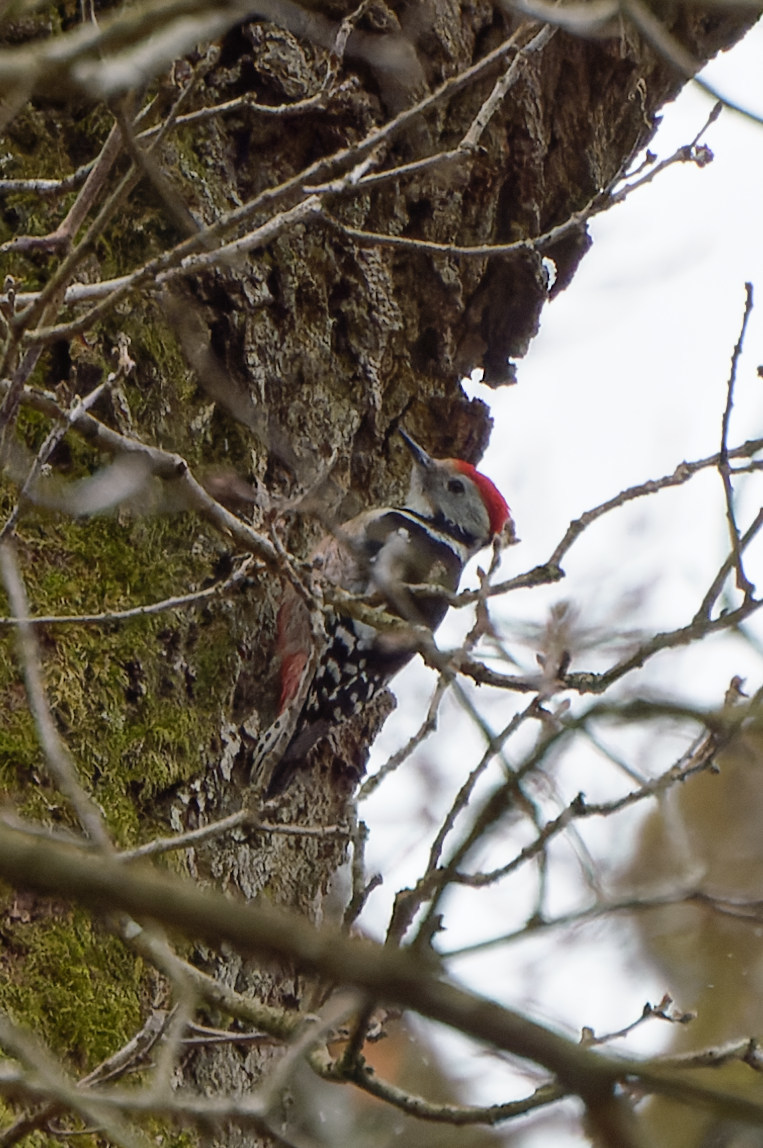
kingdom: Animalia
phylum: Chordata
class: Aves
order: Piciformes
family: Picidae
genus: Dendrocoptes
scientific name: Dendrocoptes medius
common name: Middle spotted woodpecker
